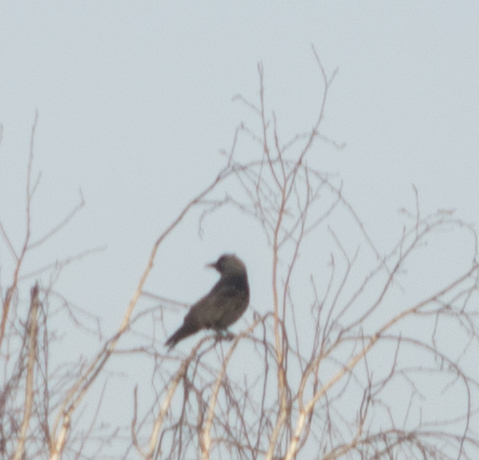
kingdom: Animalia
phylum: Chordata
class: Aves
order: Passeriformes
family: Corvidae
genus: Coloeus
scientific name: Coloeus monedula
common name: Western jackdaw
